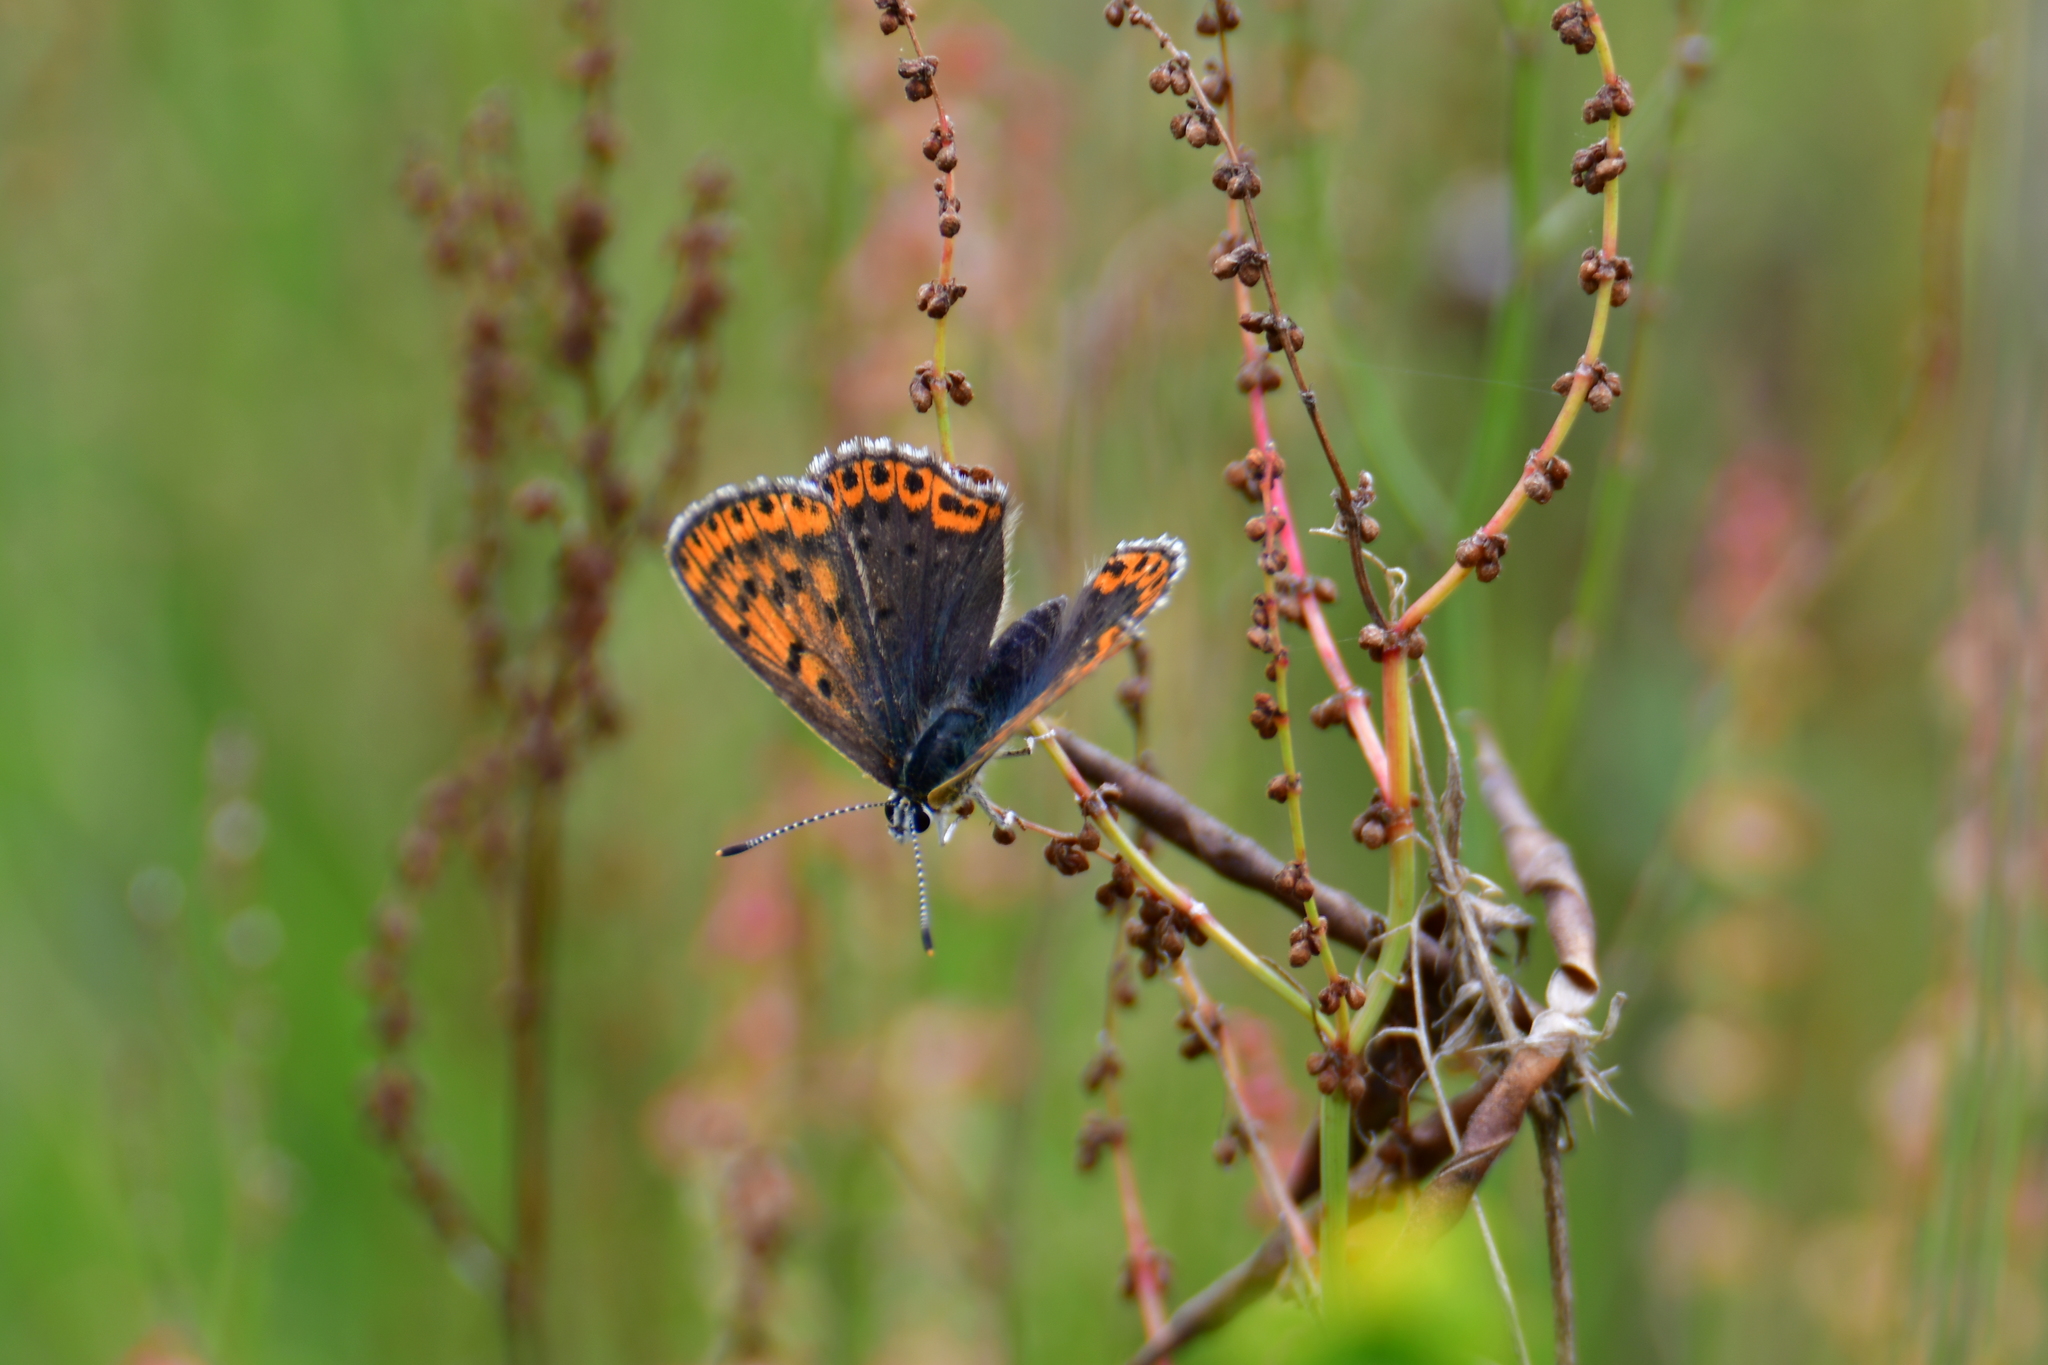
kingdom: Animalia
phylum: Arthropoda
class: Insecta
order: Lepidoptera
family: Lycaenidae
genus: Loweia
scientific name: Loweia tityrus
